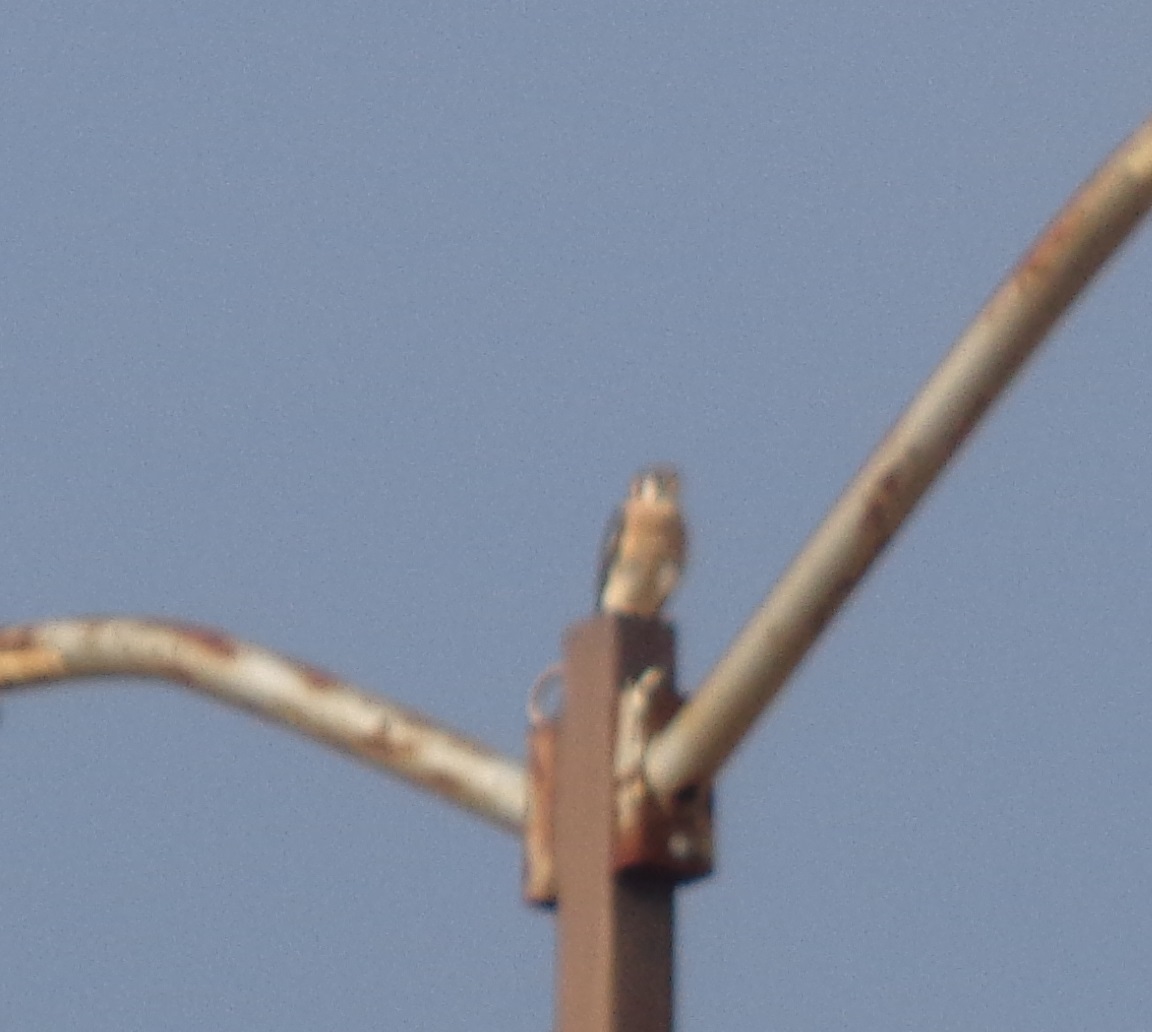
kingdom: Animalia
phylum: Chordata
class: Aves
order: Falconiformes
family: Falconidae
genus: Falco
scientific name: Falco sparverius
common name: American kestrel
